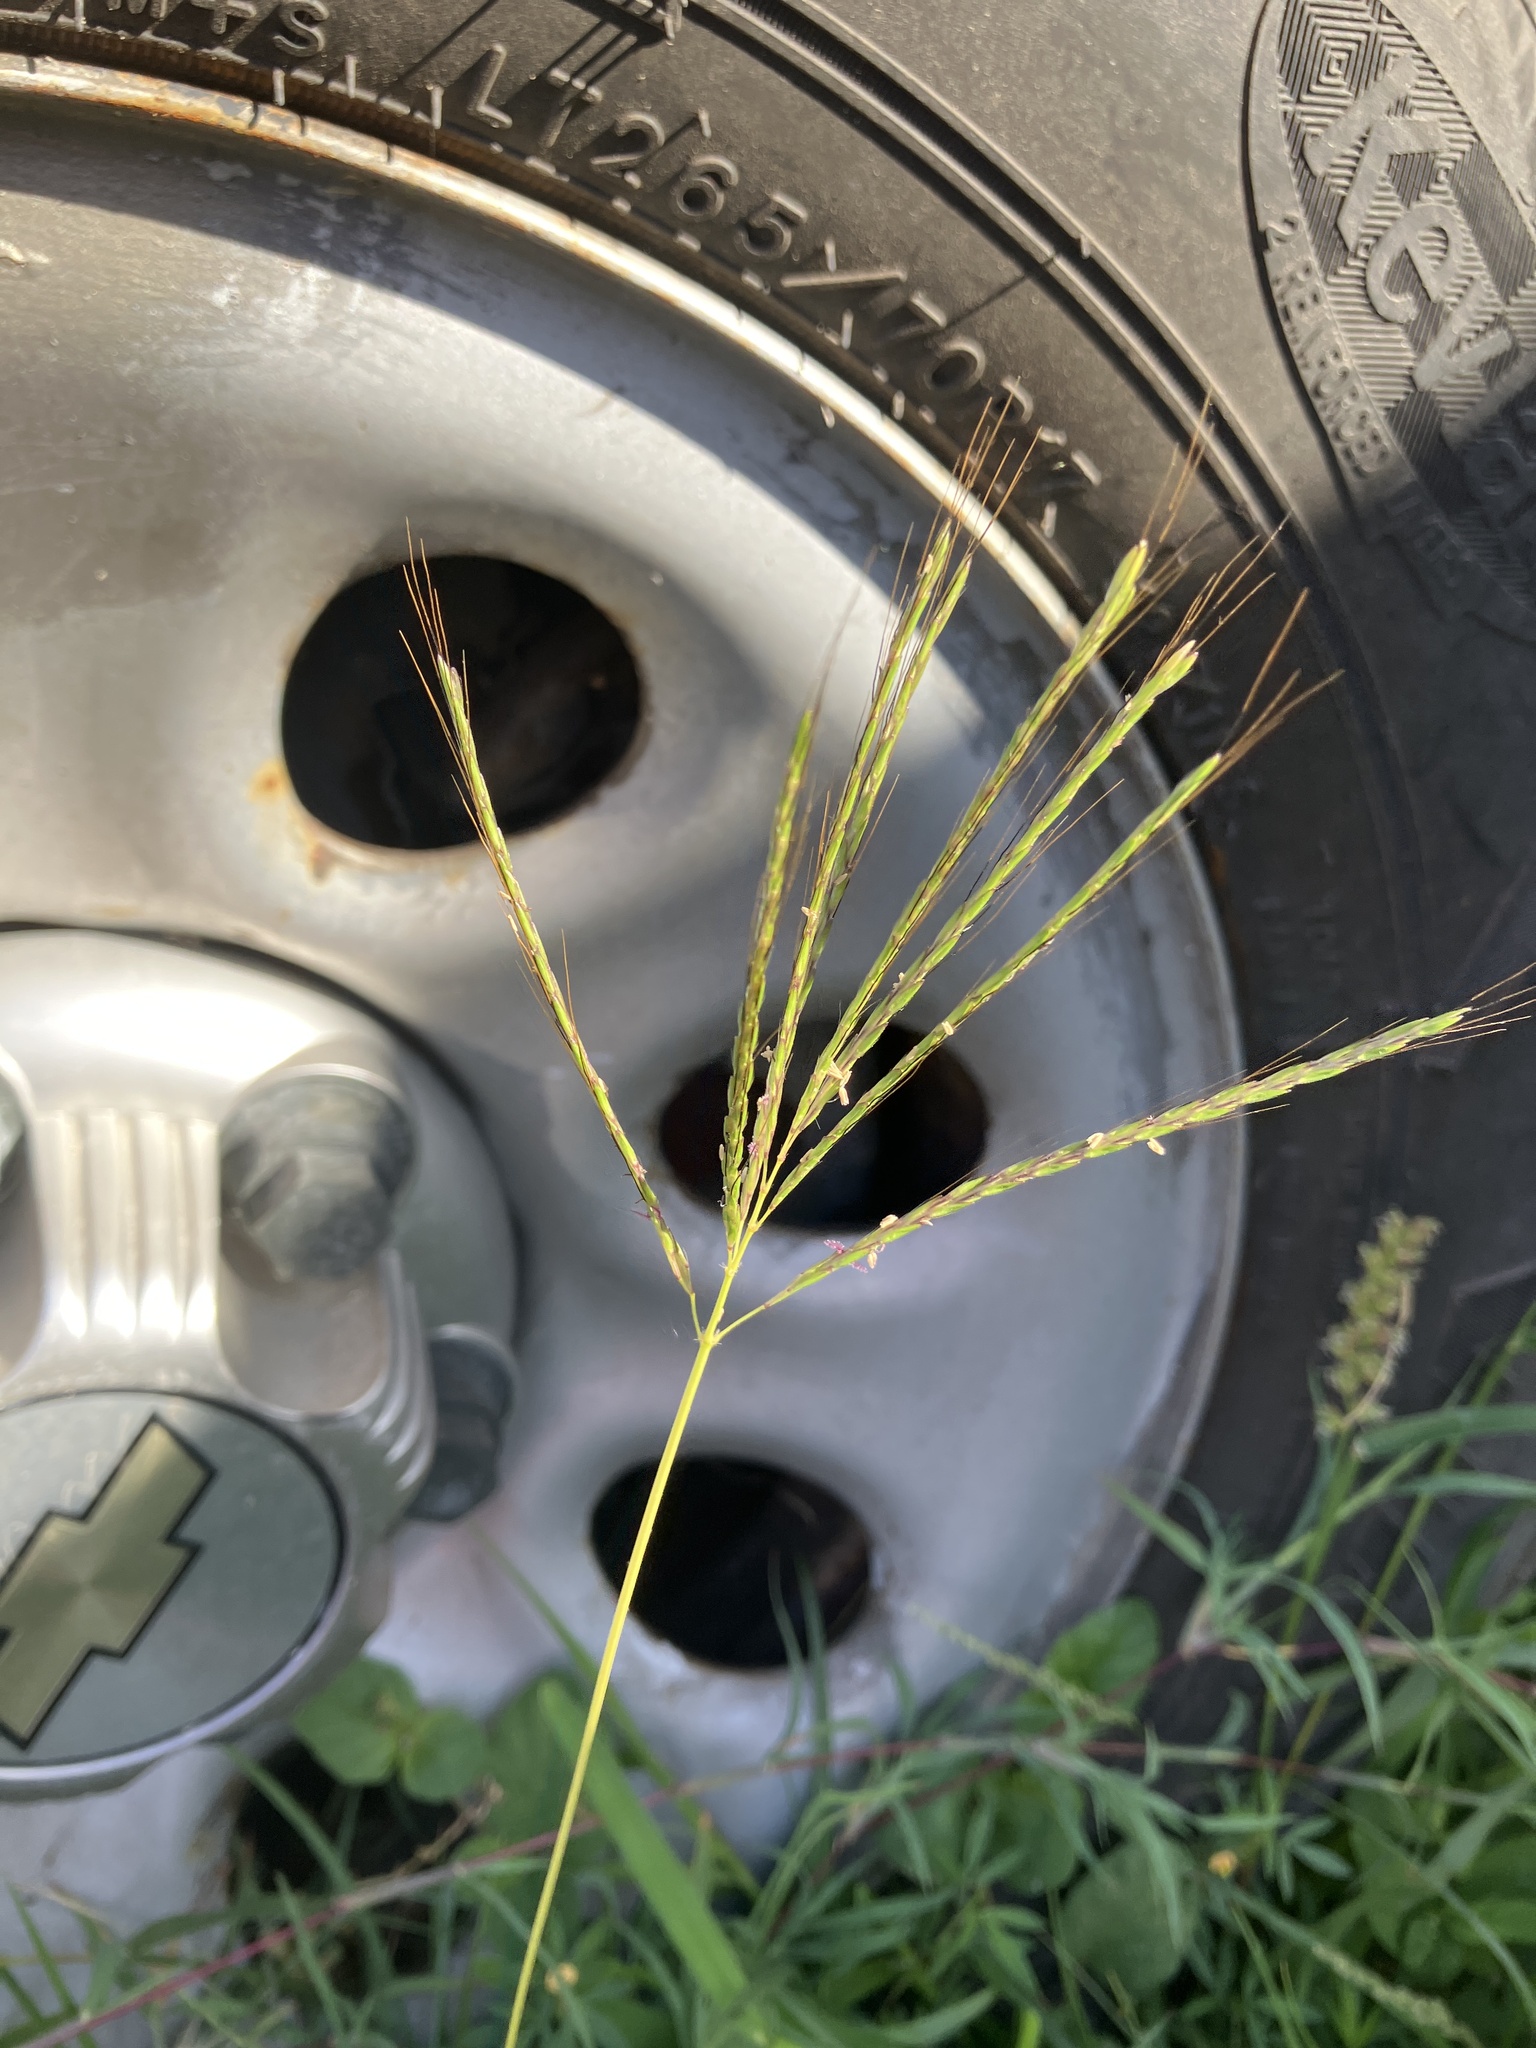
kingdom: Plantae
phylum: Tracheophyta
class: Liliopsida
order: Poales
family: Poaceae
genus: Dichanthium
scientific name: Dichanthium annulatum
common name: Kleberg's bluestem
